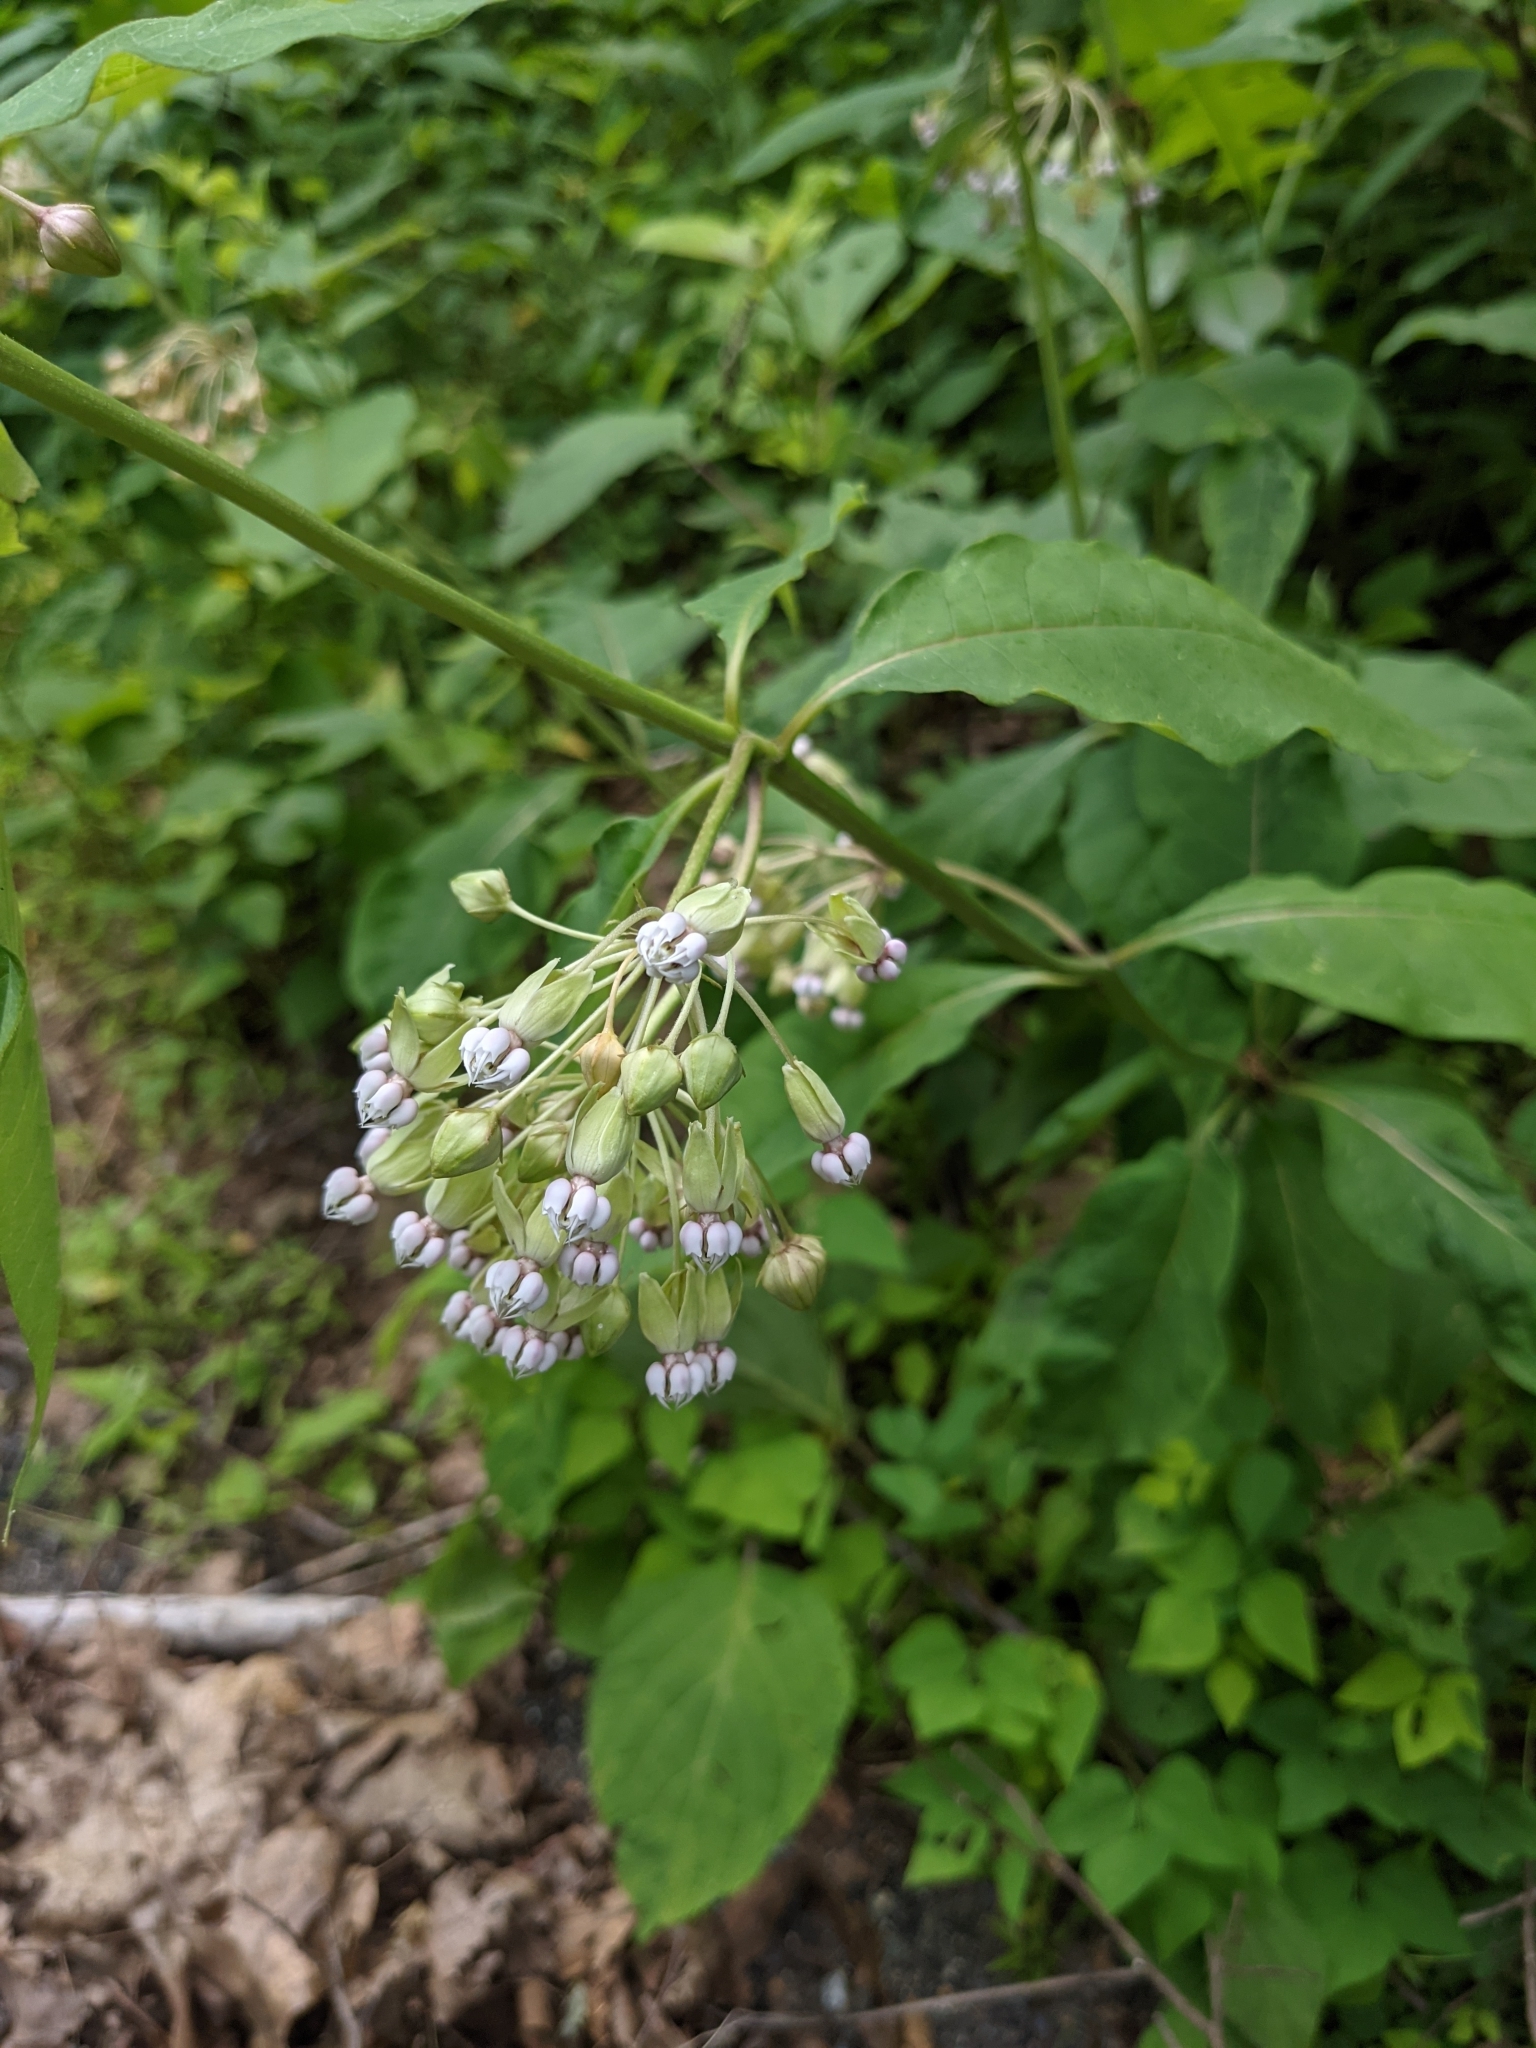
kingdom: Plantae
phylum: Tracheophyta
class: Magnoliopsida
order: Gentianales
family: Apocynaceae
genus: Asclepias
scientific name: Asclepias exaltata
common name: Poke milkweed
